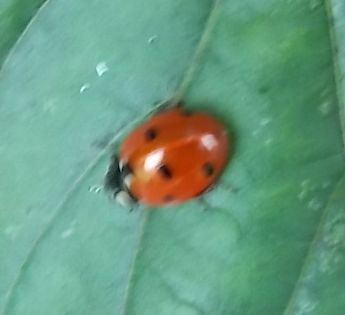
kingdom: Animalia
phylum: Arthropoda
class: Insecta
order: Coleoptera
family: Coccinellidae
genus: Coccinella
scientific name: Coccinella septempunctata
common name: Sevenspotted lady beetle
